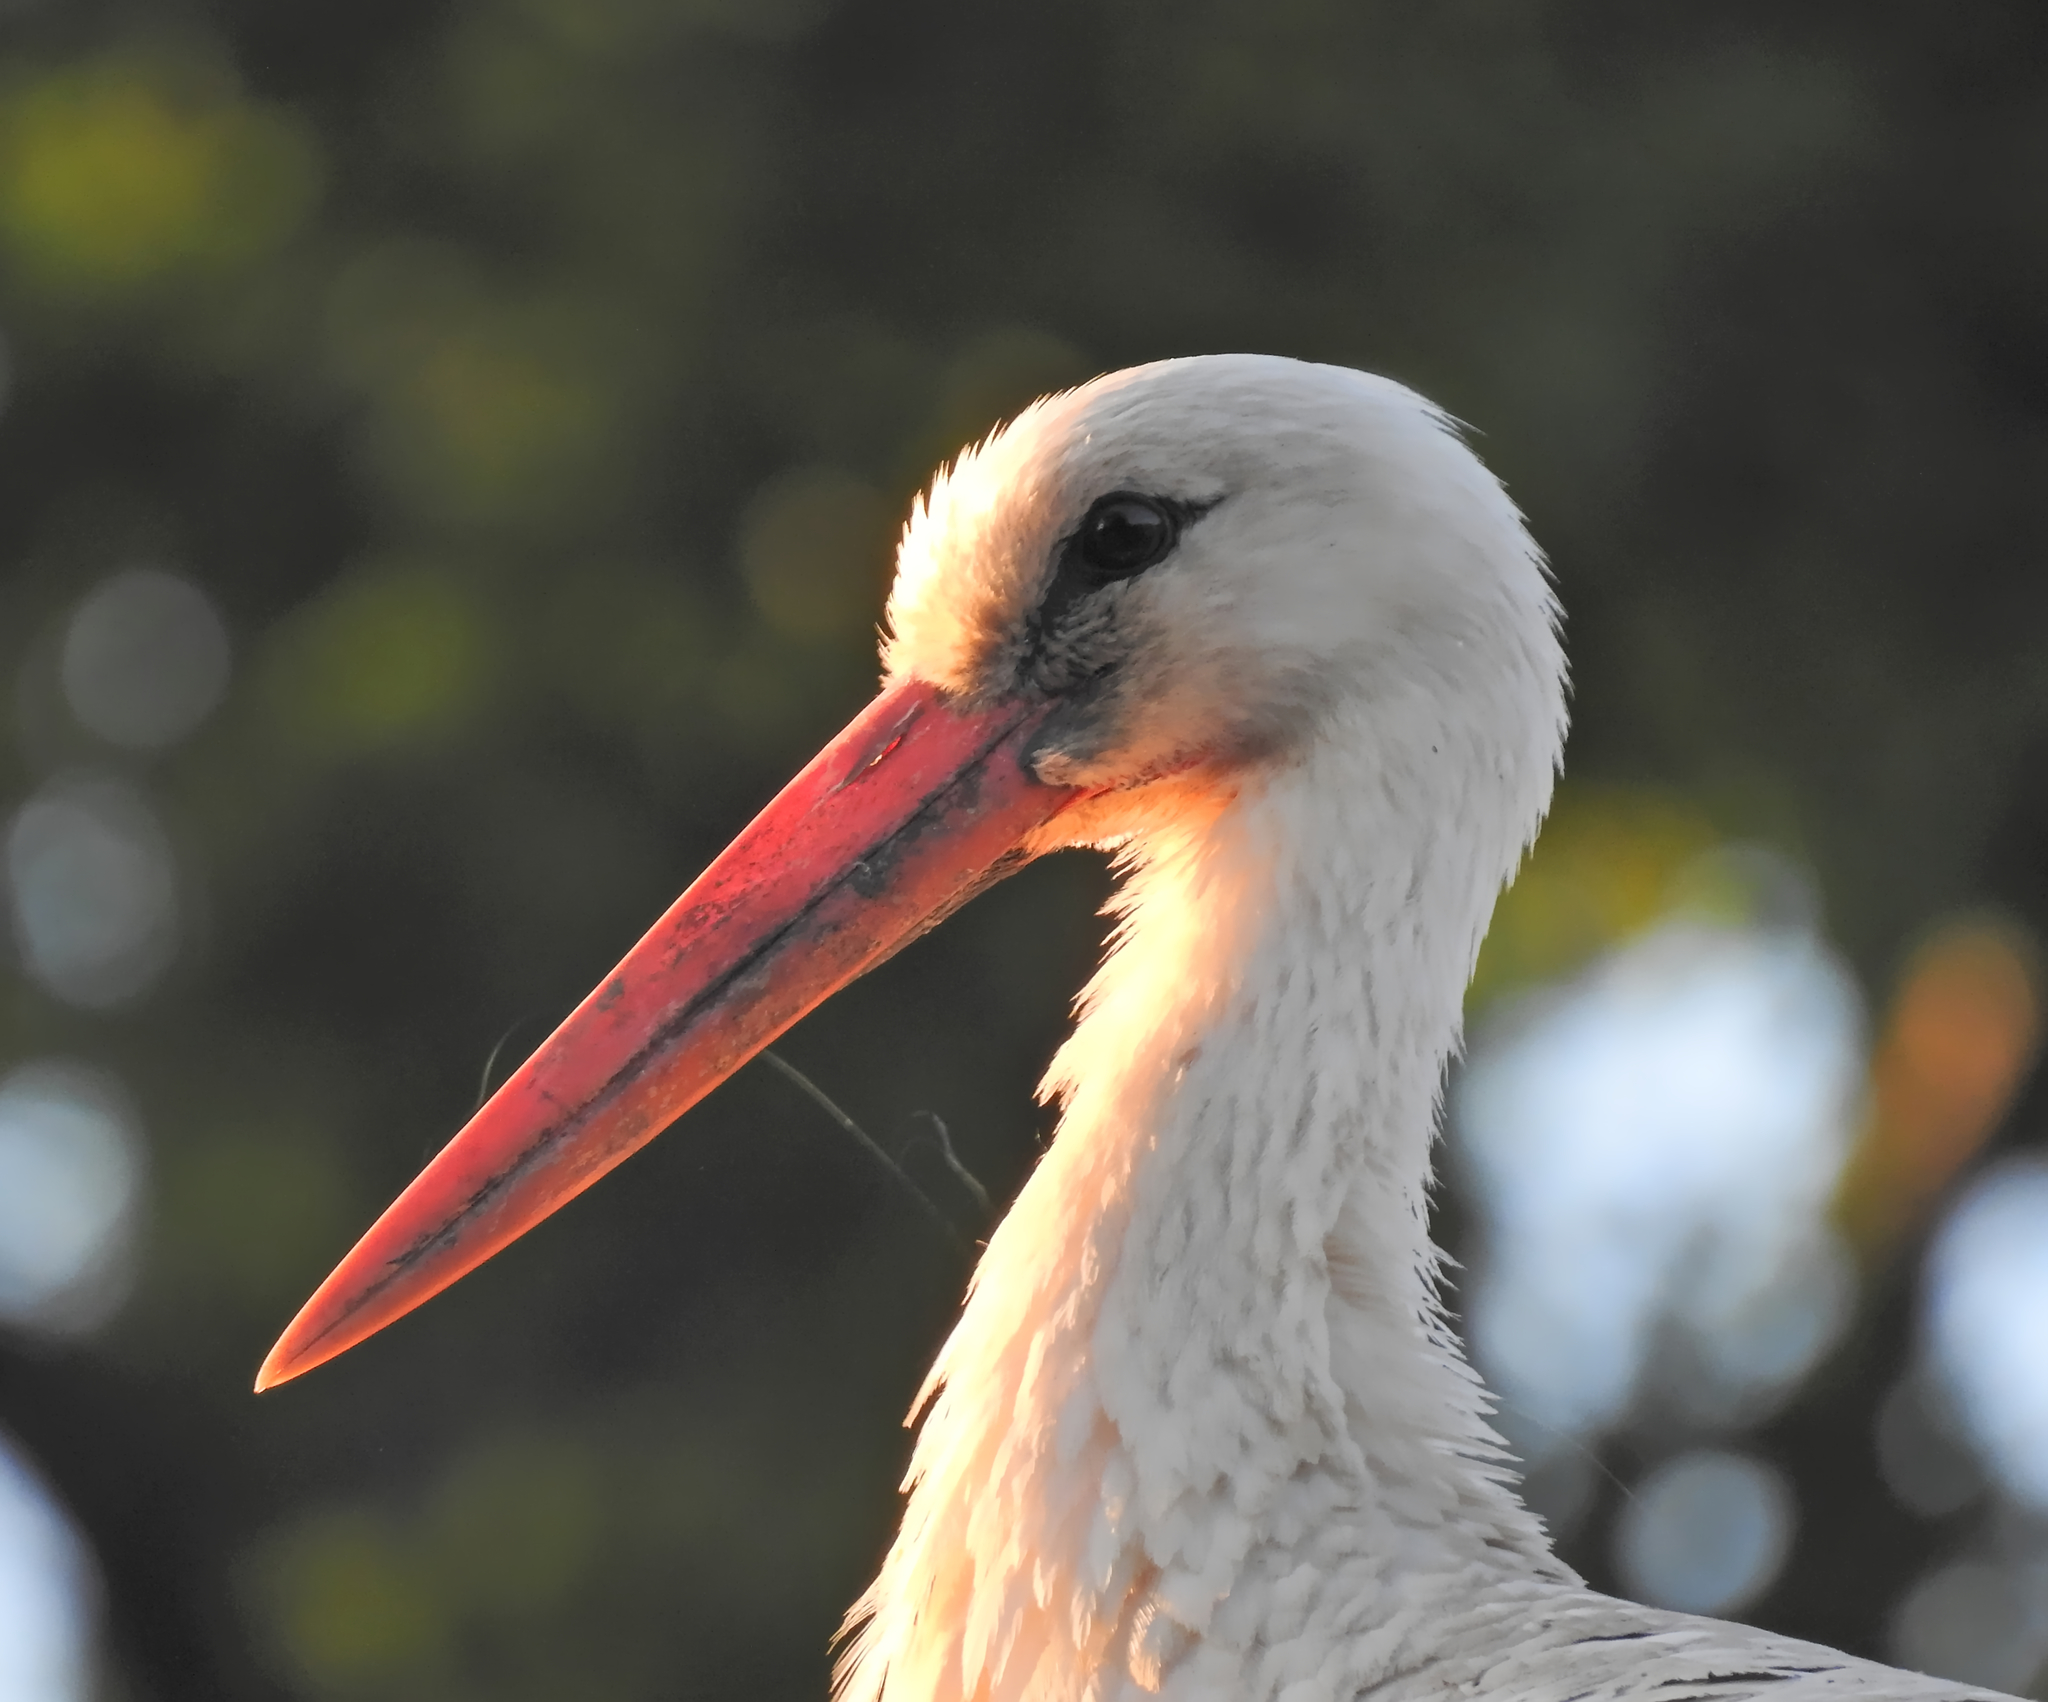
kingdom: Animalia
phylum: Chordata
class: Aves
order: Ciconiiformes
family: Ciconiidae
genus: Ciconia
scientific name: Ciconia ciconia
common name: White stork
